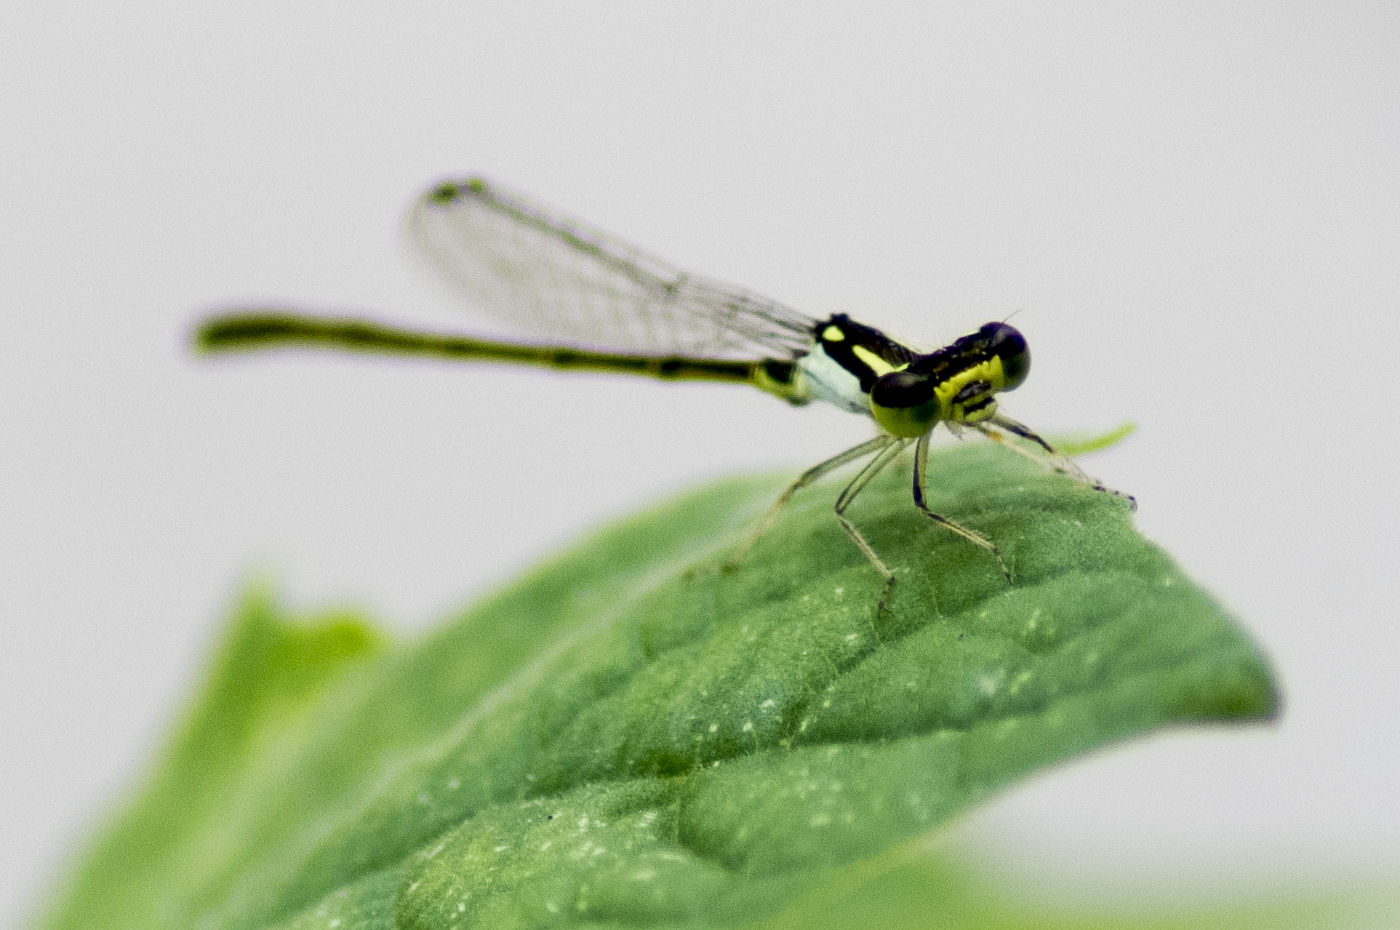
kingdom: Animalia
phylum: Arthropoda
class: Insecta
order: Odonata
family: Coenagrionidae
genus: Ischnura
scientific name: Ischnura posita
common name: Fragile forktail
